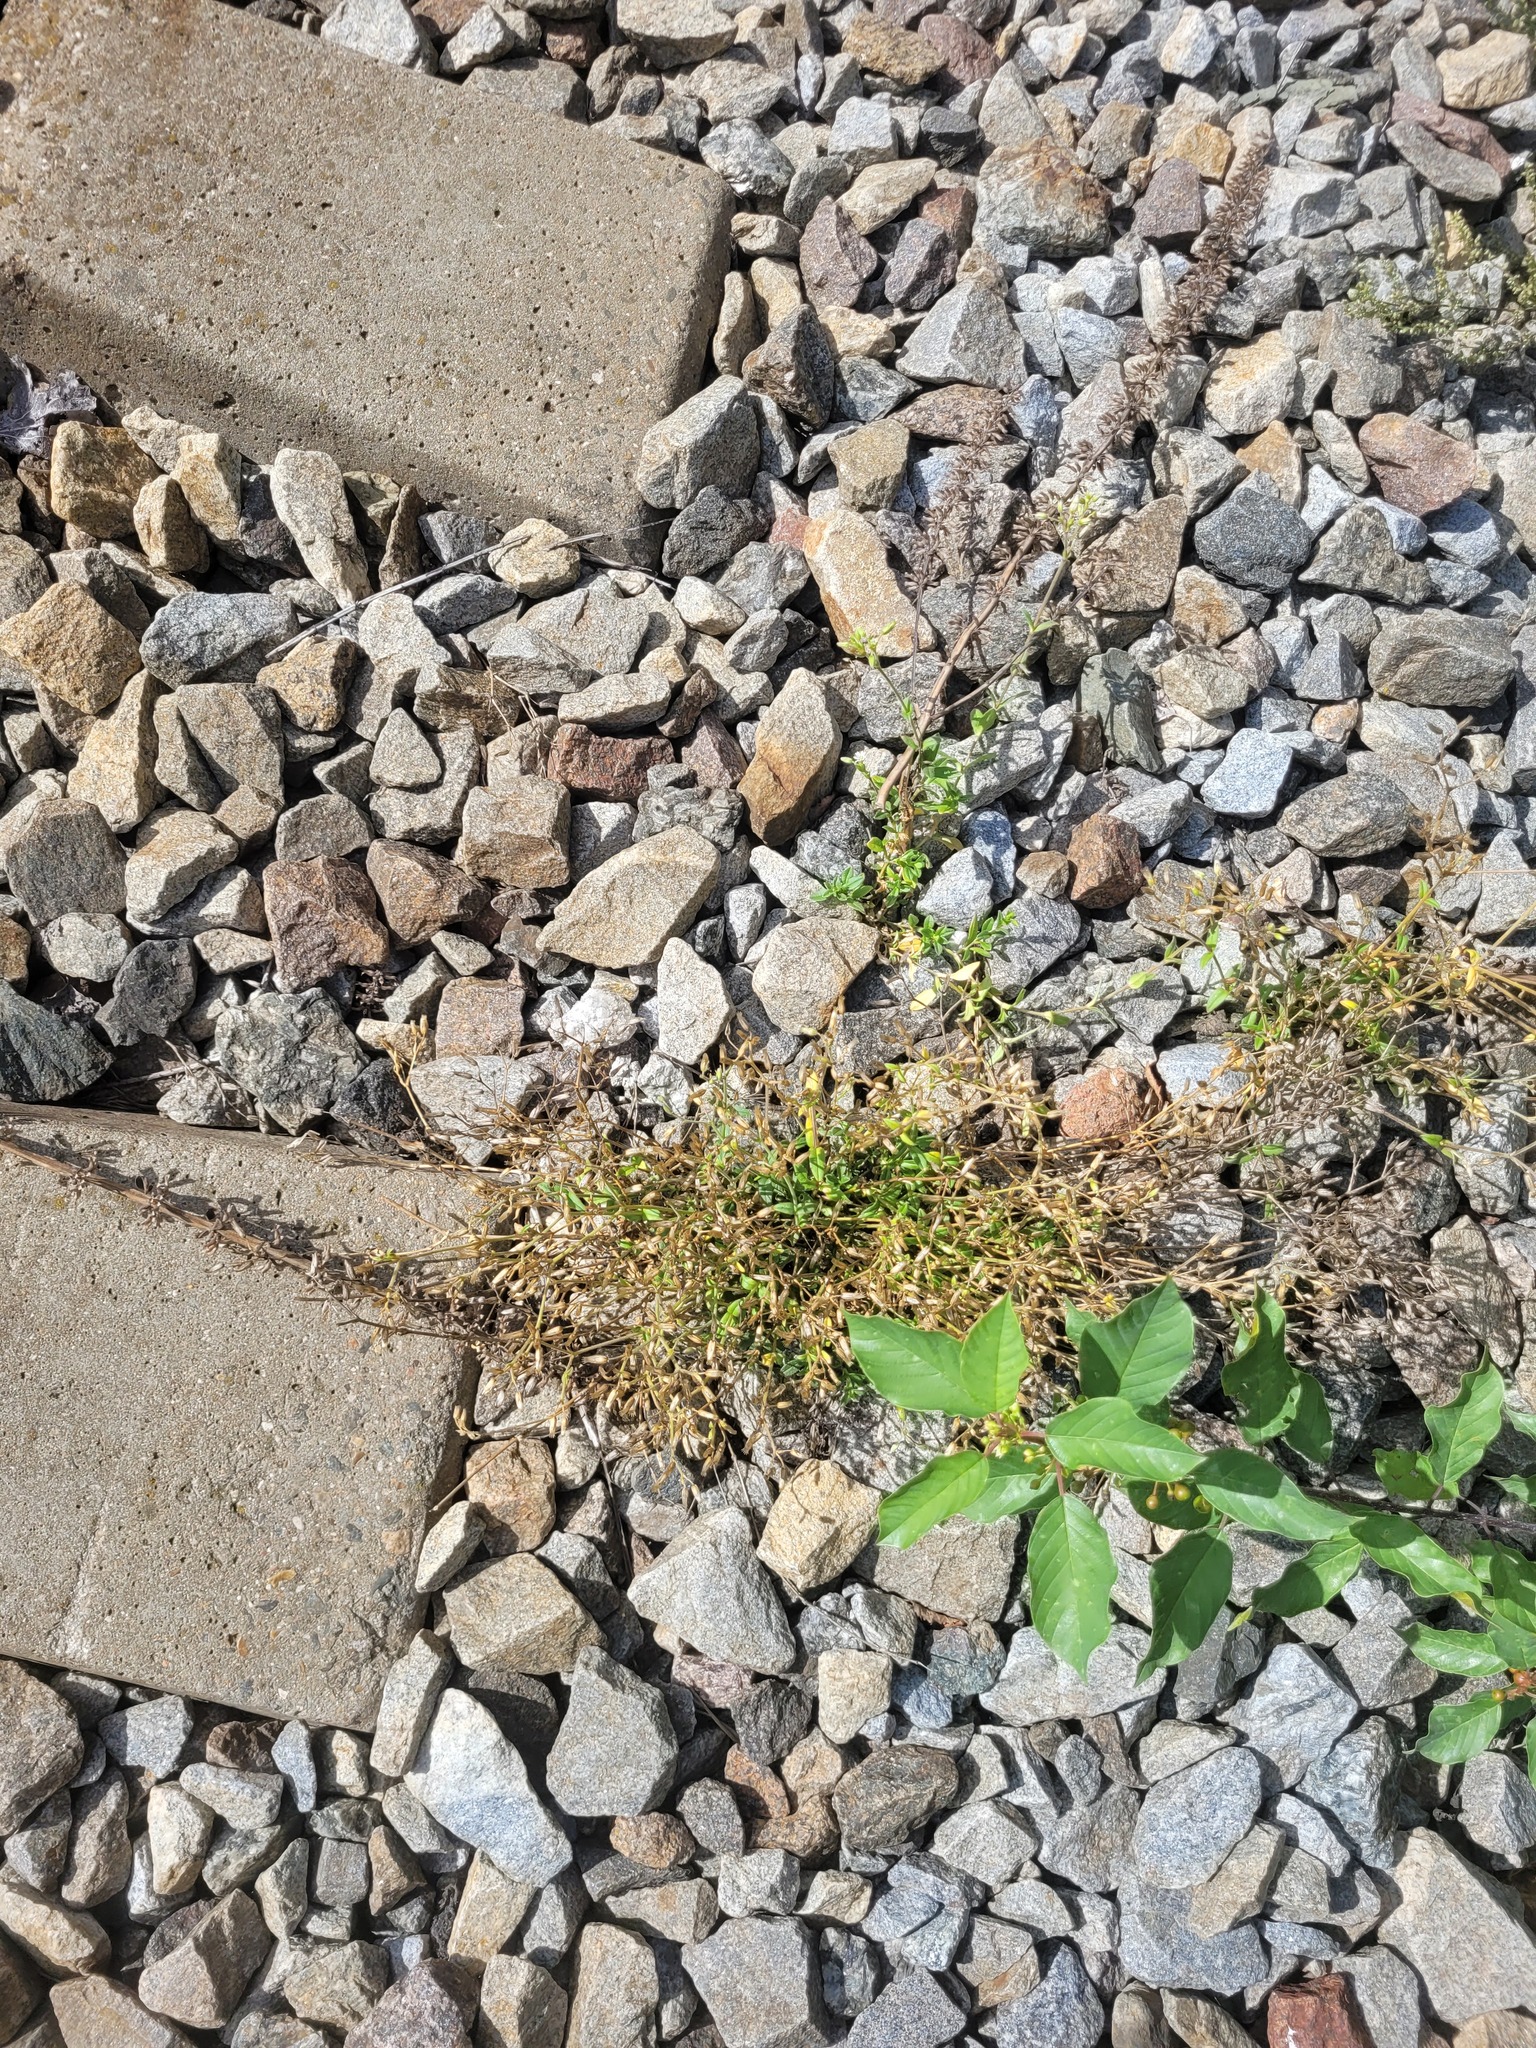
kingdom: Plantae
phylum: Tracheophyta
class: Magnoliopsida
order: Caryophyllales
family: Caryophyllaceae
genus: Cerastium
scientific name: Cerastium holosteoides
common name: Big chickweed
